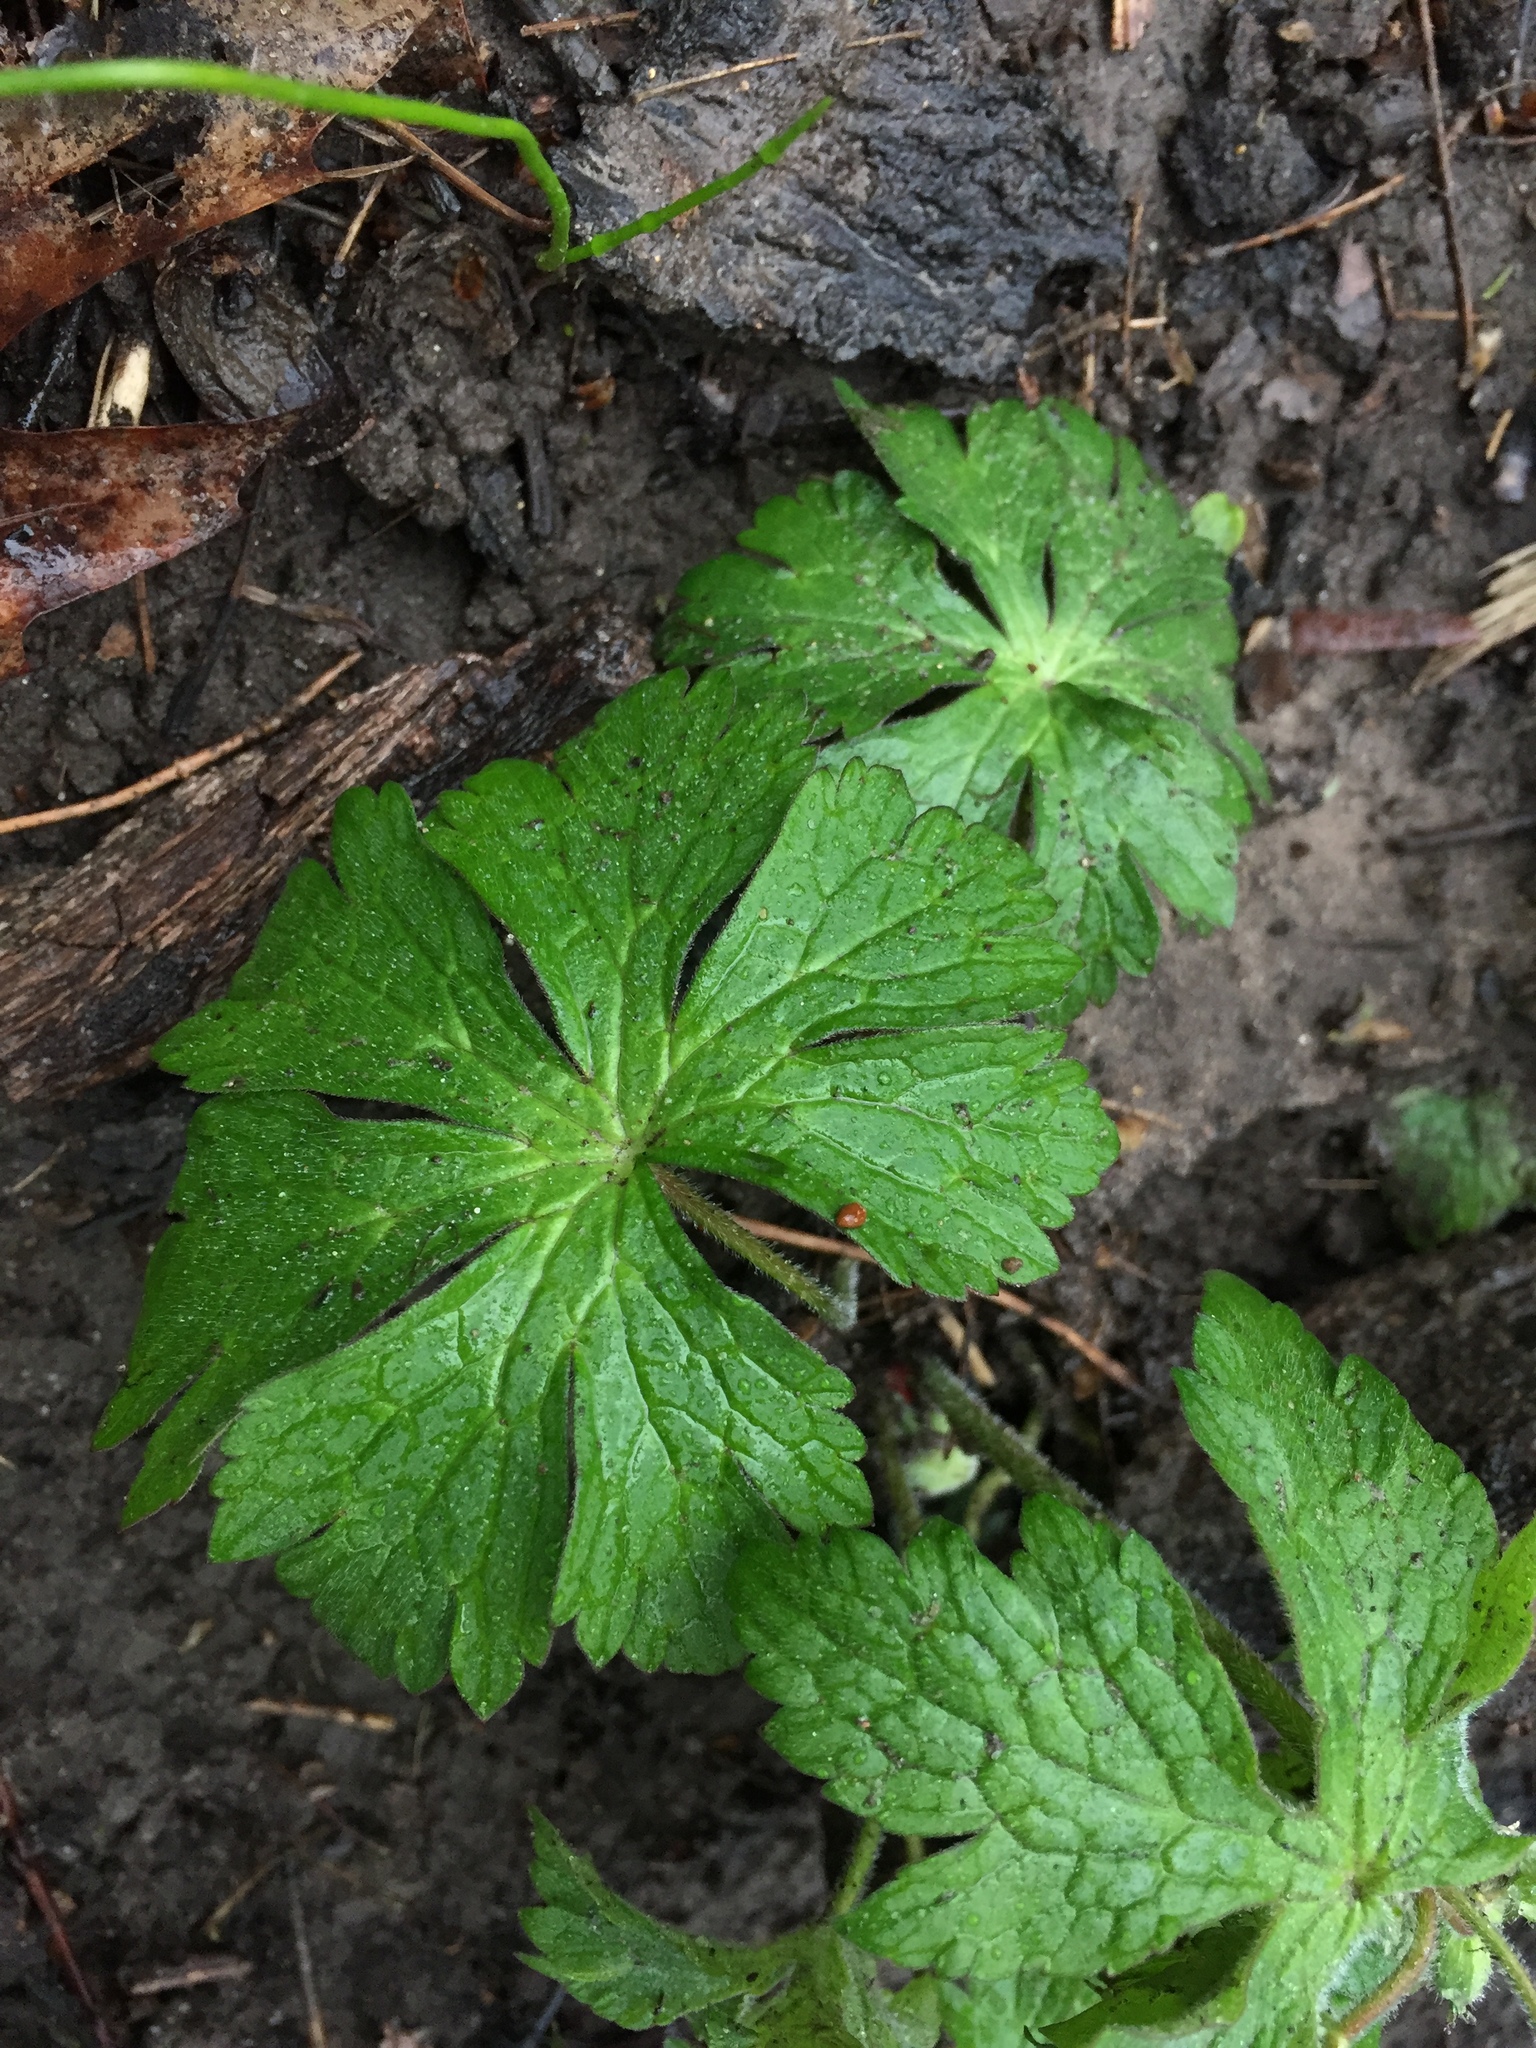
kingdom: Plantae
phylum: Tracheophyta
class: Magnoliopsida
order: Geraniales
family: Geraniaceae
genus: Geranium
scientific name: Geranium maculatum
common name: Spotted geranium
